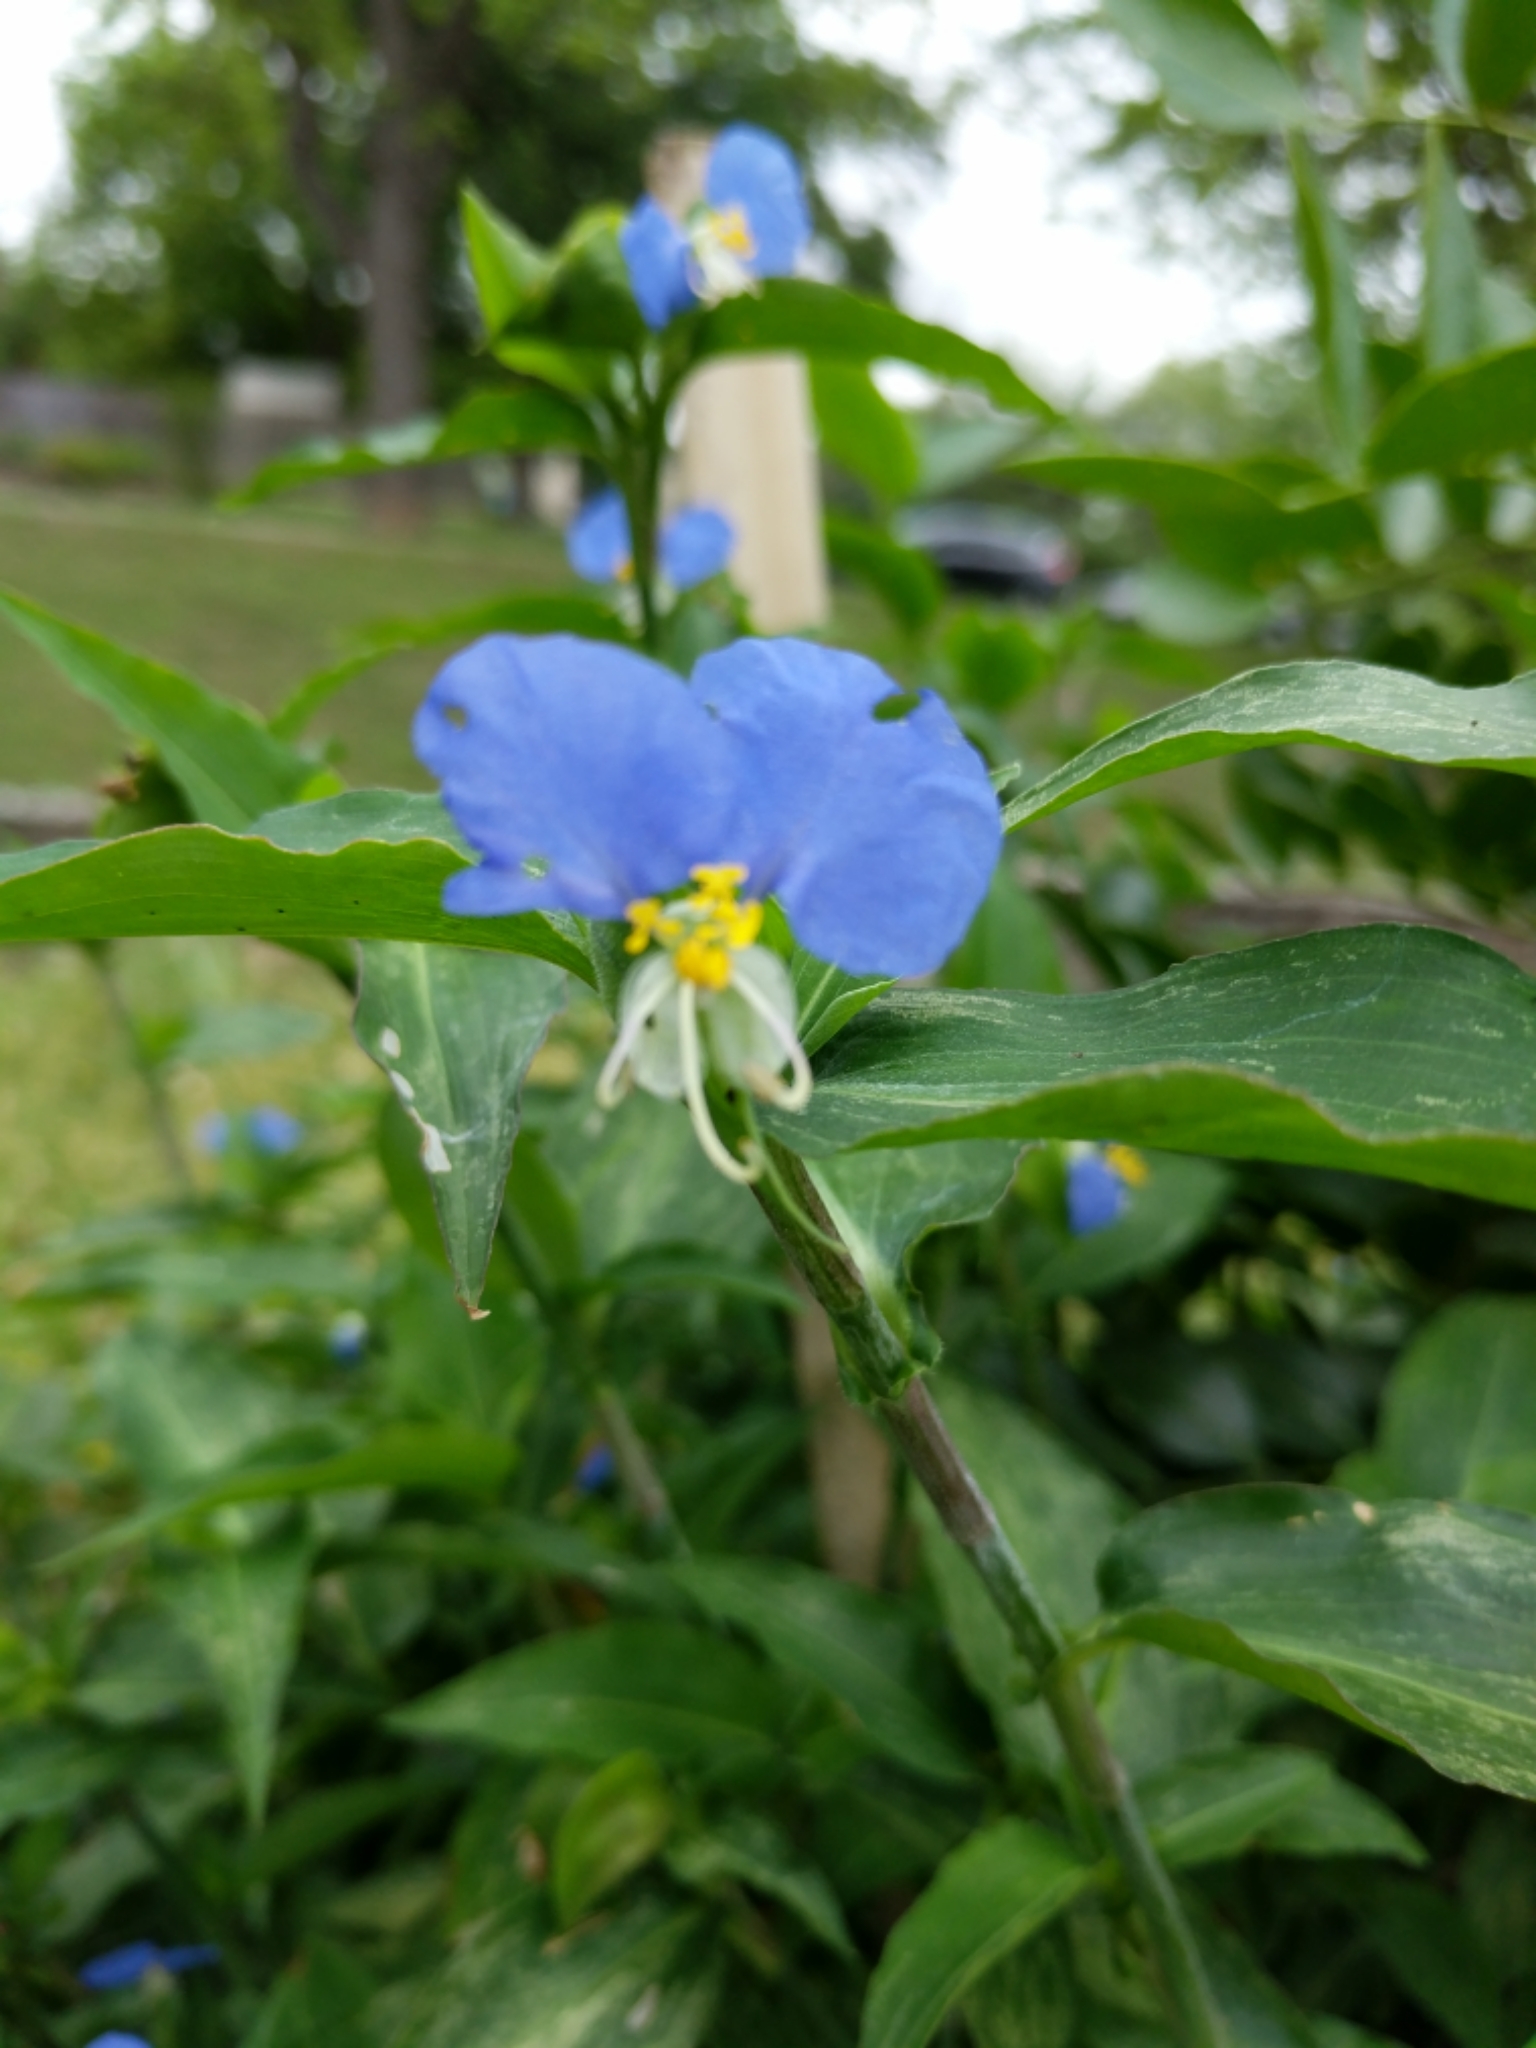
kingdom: Plantae
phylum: Tracheophyta
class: Liliopsida
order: Commelinales
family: Commelinaceae
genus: Commelina
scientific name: Commelina erecta
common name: Blousel blommetjie
